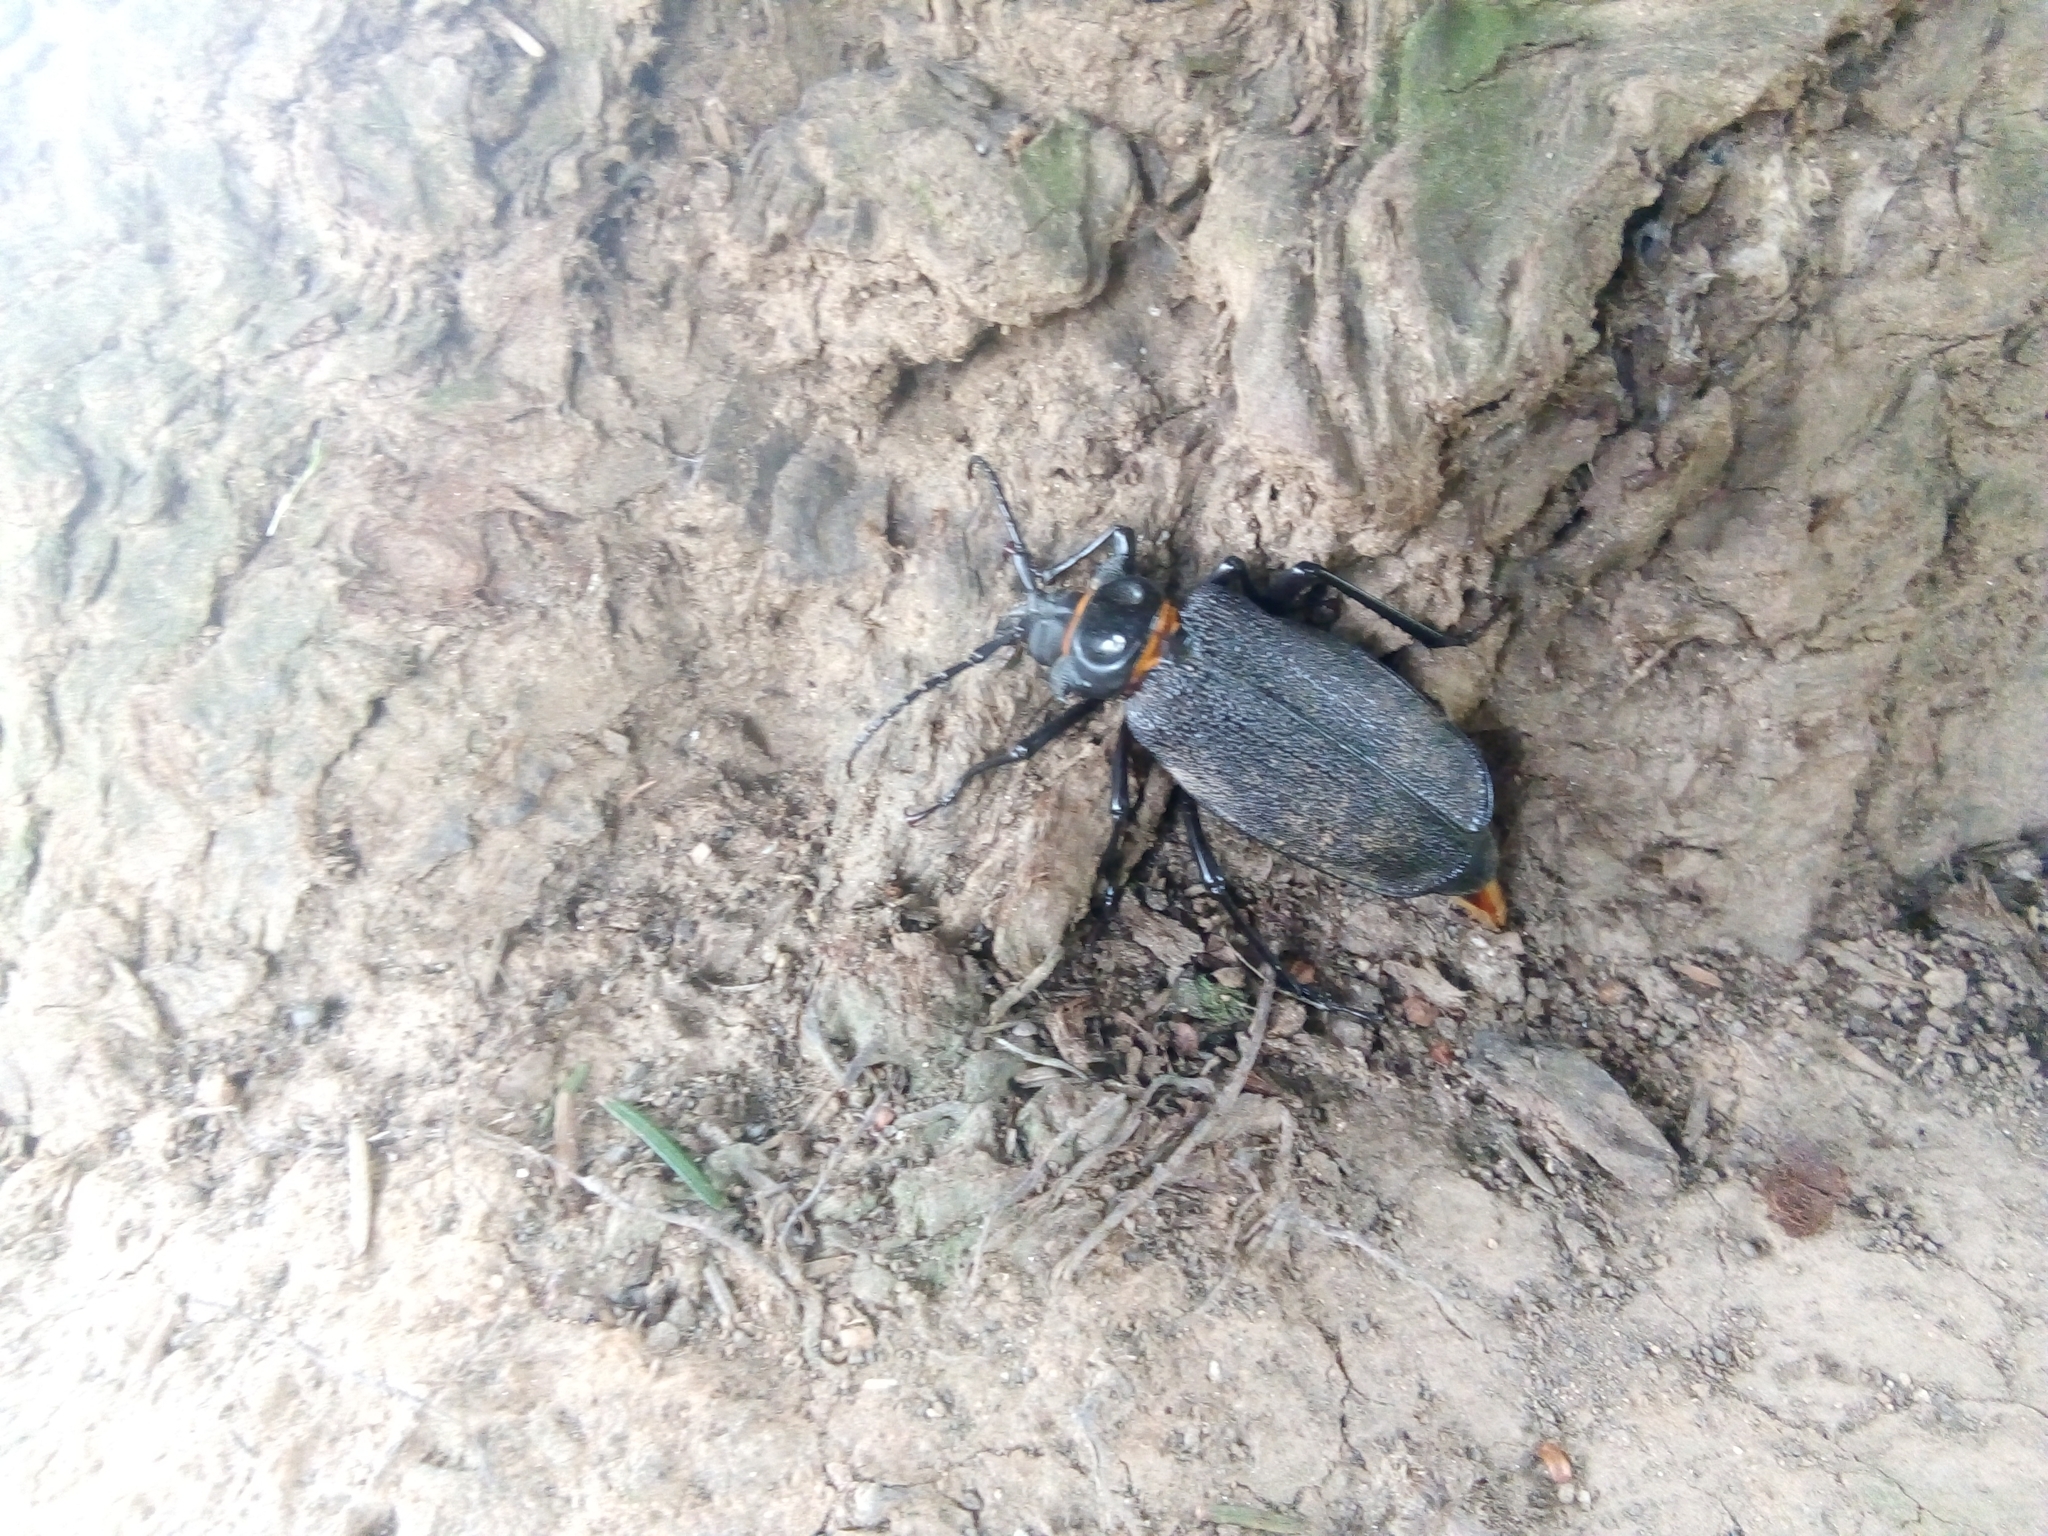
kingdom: Animalia
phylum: Arthropoda
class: Insecta
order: Coleoptera
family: Cerambycidae
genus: Acanthinodera
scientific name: Acanthinodera cumingii
